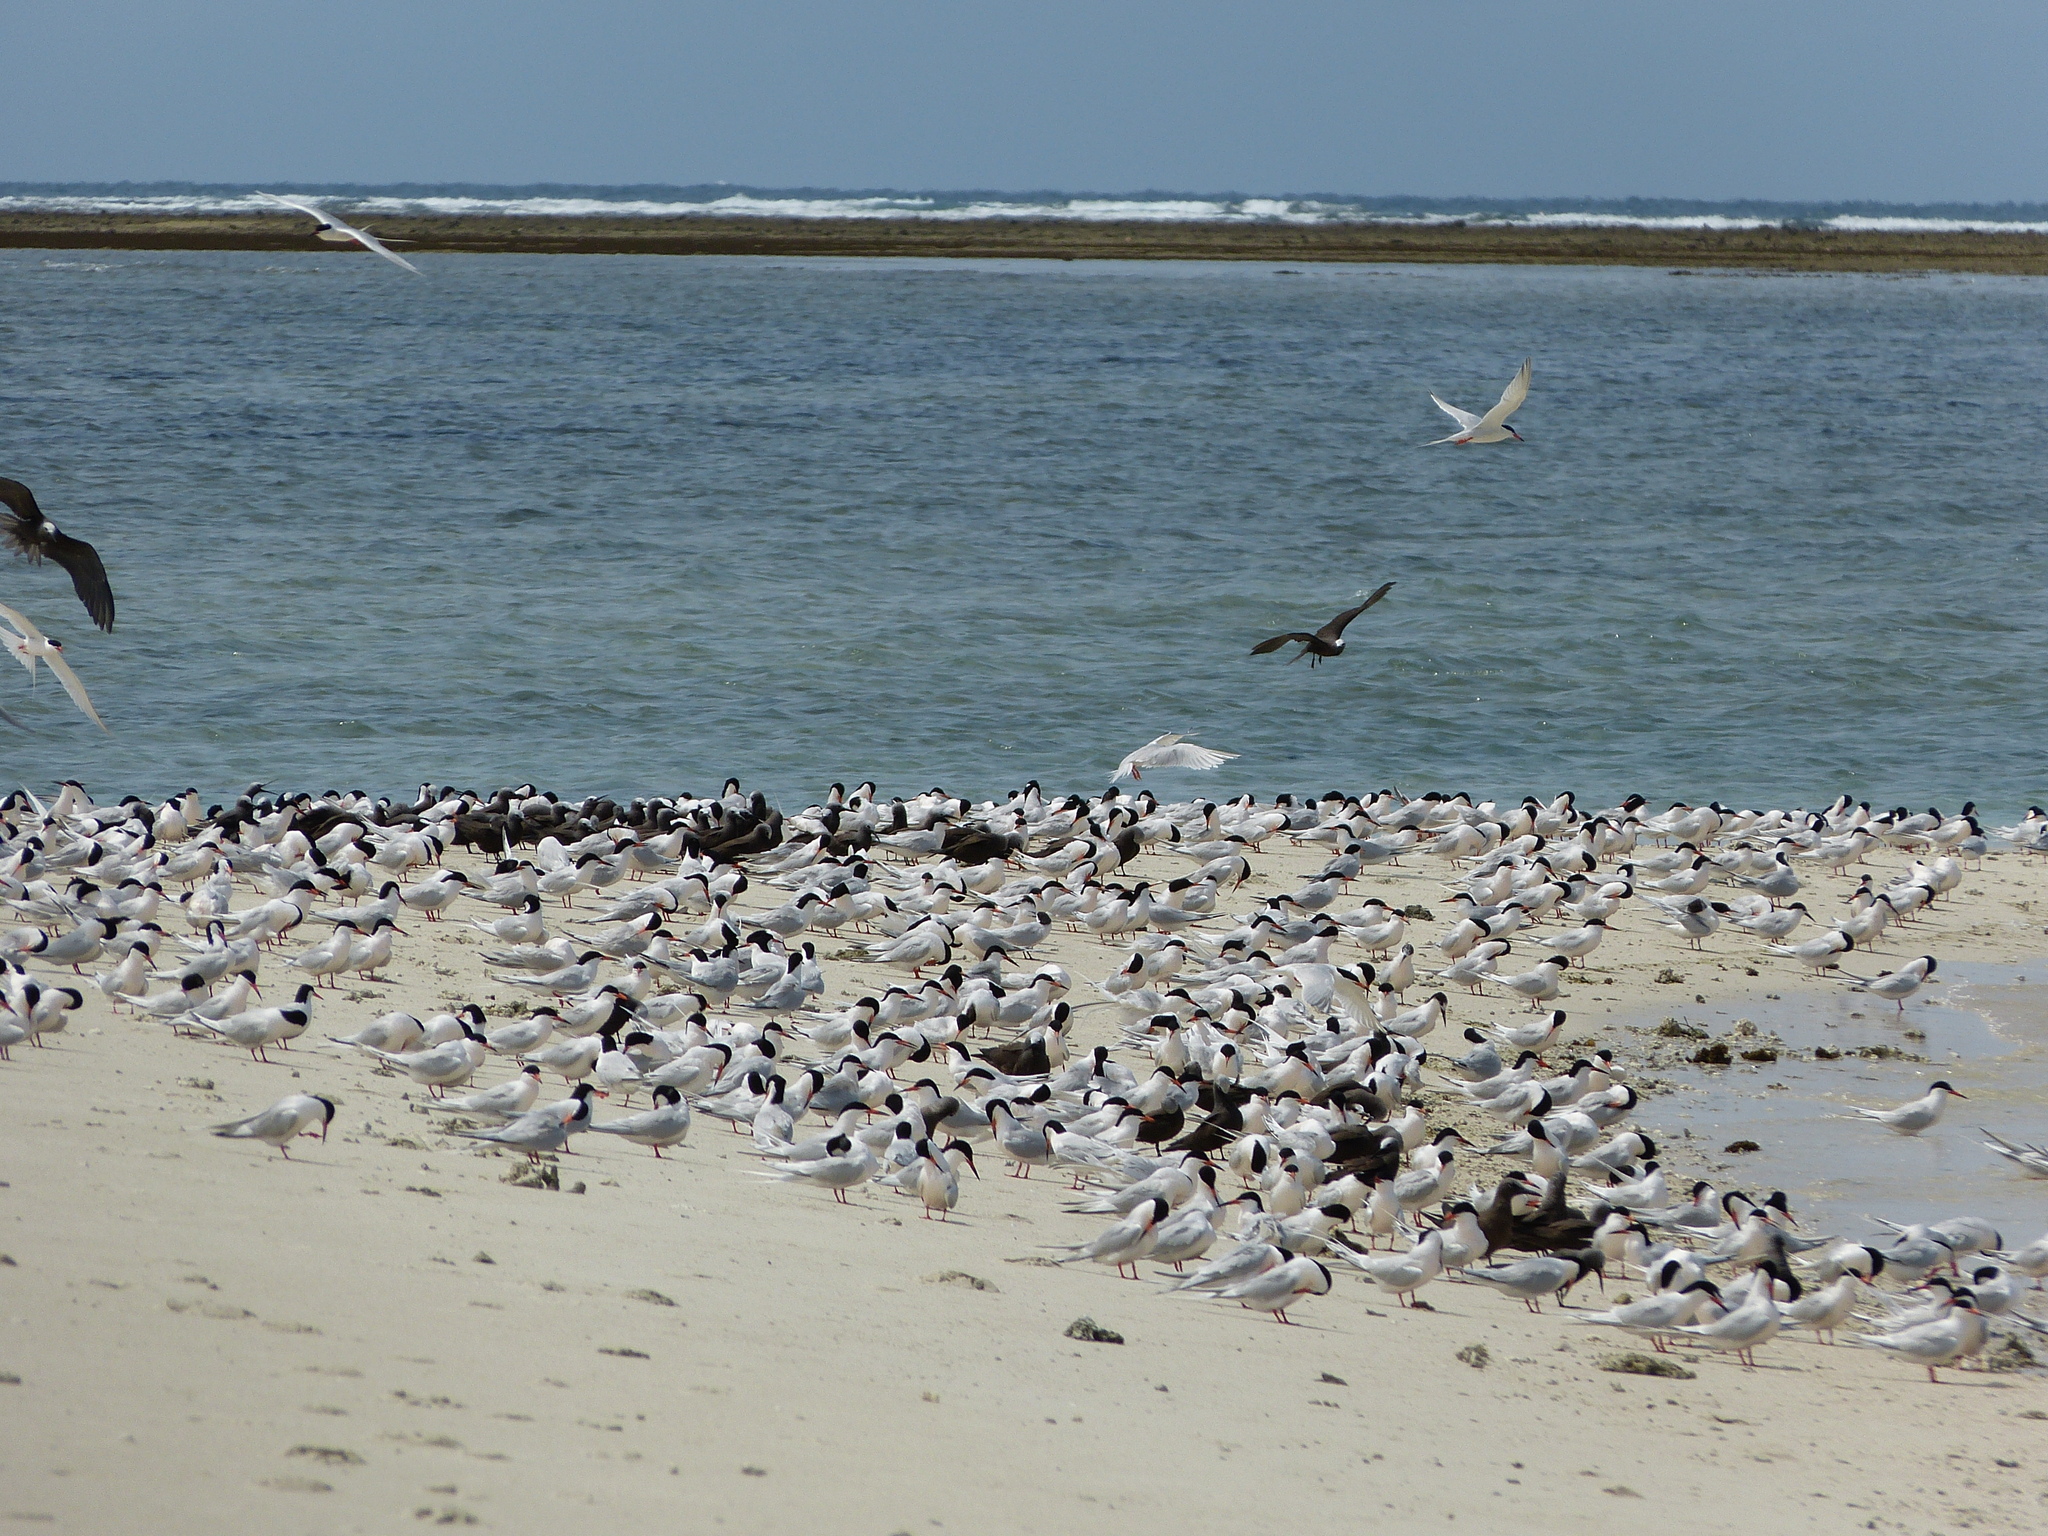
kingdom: Animalia
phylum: Chordata
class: Aves
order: Charadriiformes
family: Laridae
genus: Anous
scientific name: Anous tenuirostris
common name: Lesser noddy
